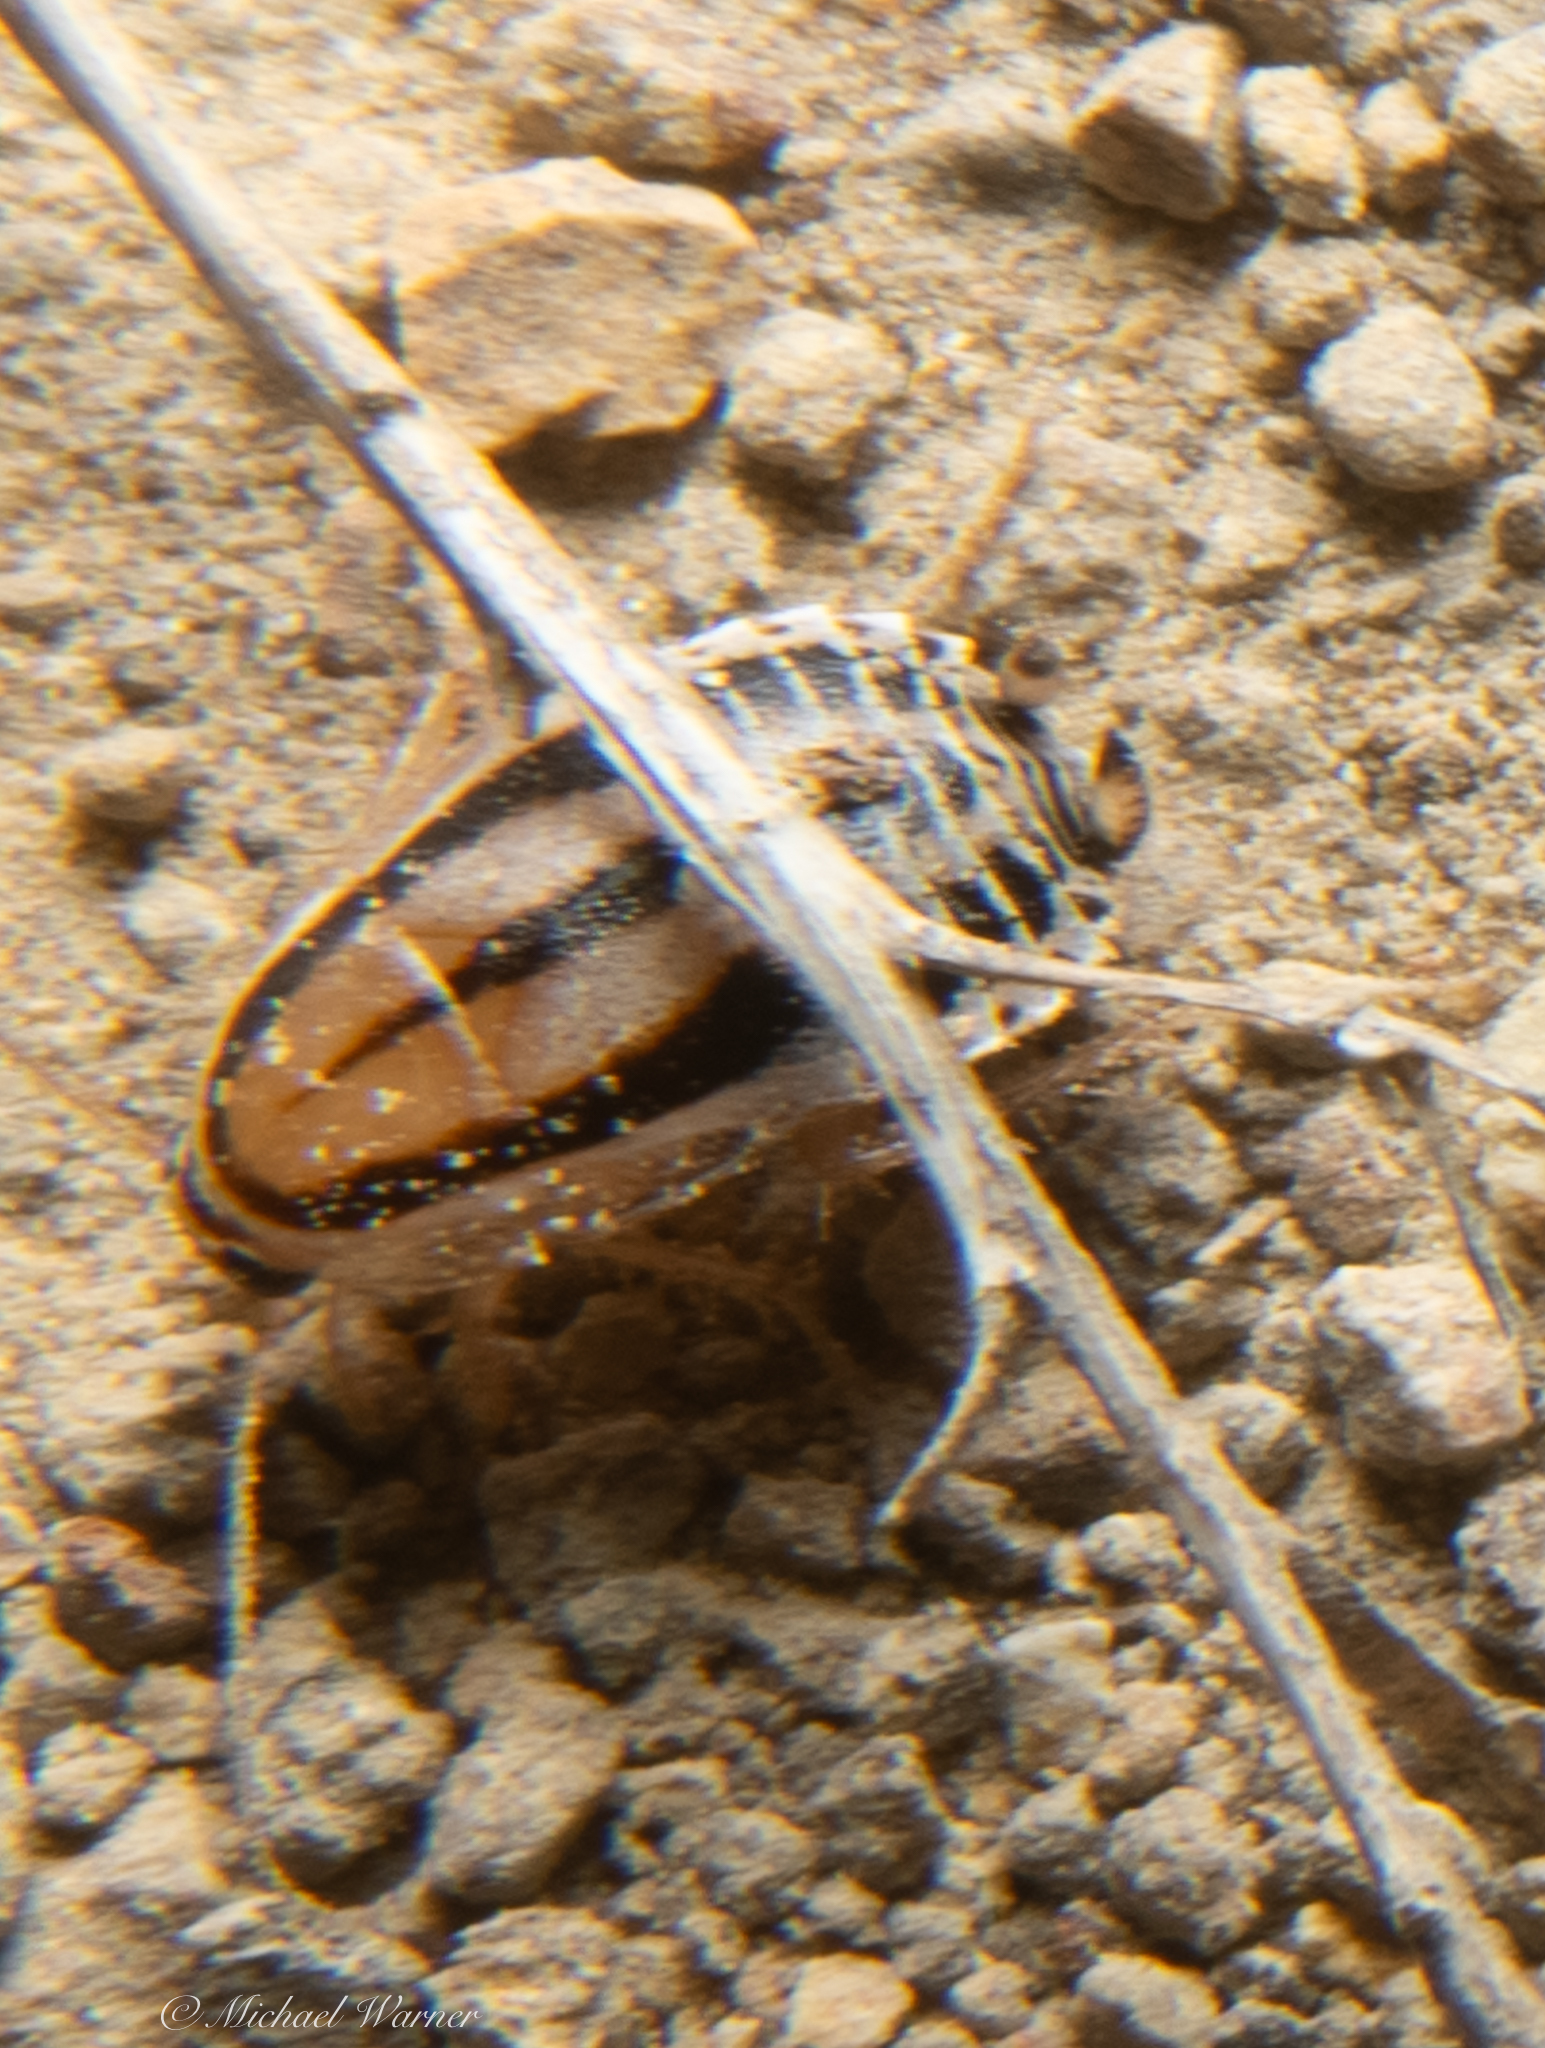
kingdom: Animalia
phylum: Arthropoda
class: Insecta
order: Blattodea
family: Ectobiidae
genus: Luridiblatta
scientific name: Luridiblatta trivittata
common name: Three-lined cockroach
